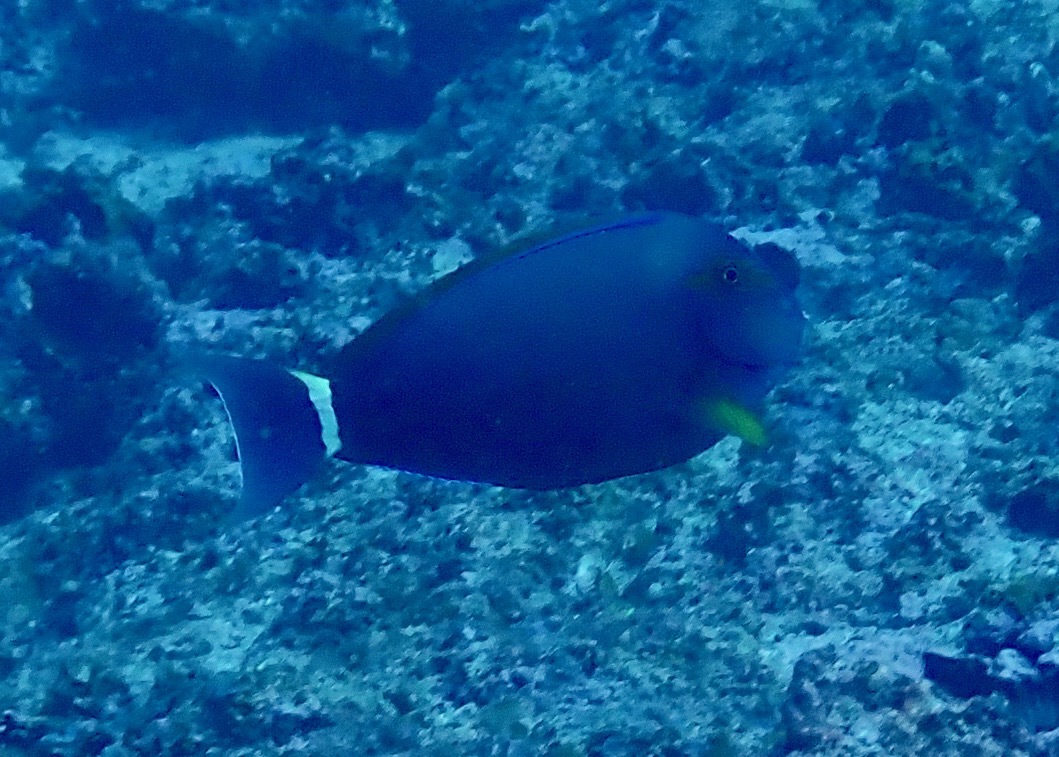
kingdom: Animalia
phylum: Chordata
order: Perciformes
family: Acanthuridae
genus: Acanthurus
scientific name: Acanthurus grammoptilus
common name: Finelined surgeonfish
